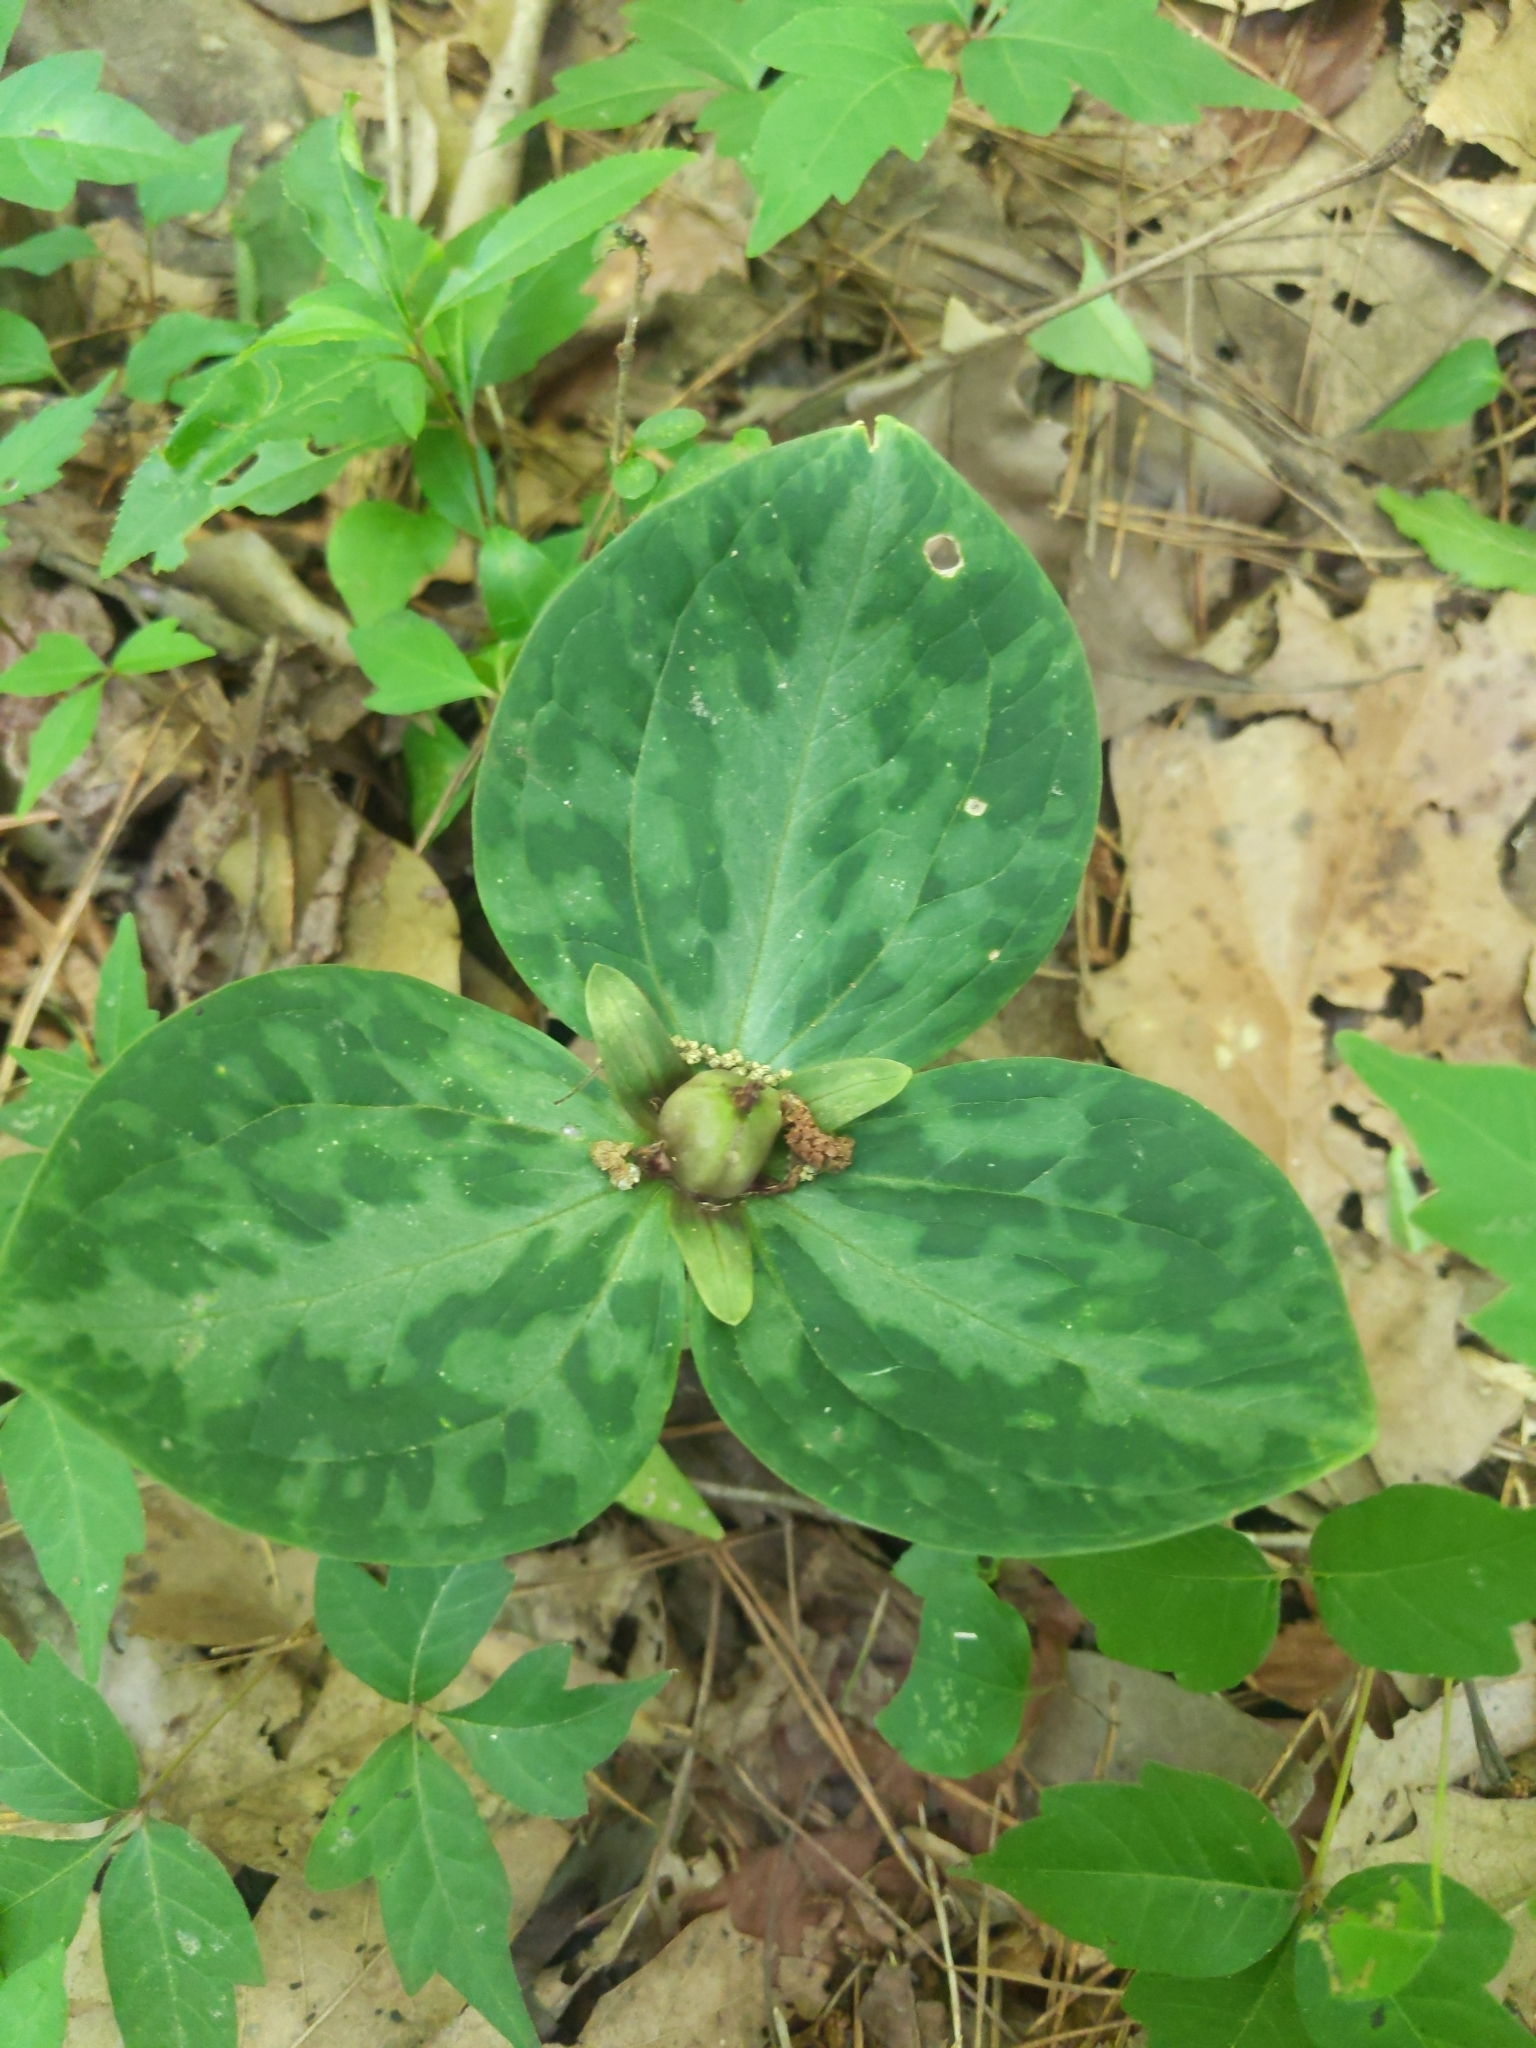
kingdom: Plantae
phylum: Tracheophyta
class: Liliopsida
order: Liliales
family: Melanthiaceae
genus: Trillium
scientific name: Trillium foetidissimum
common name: Mississippi river trillium
